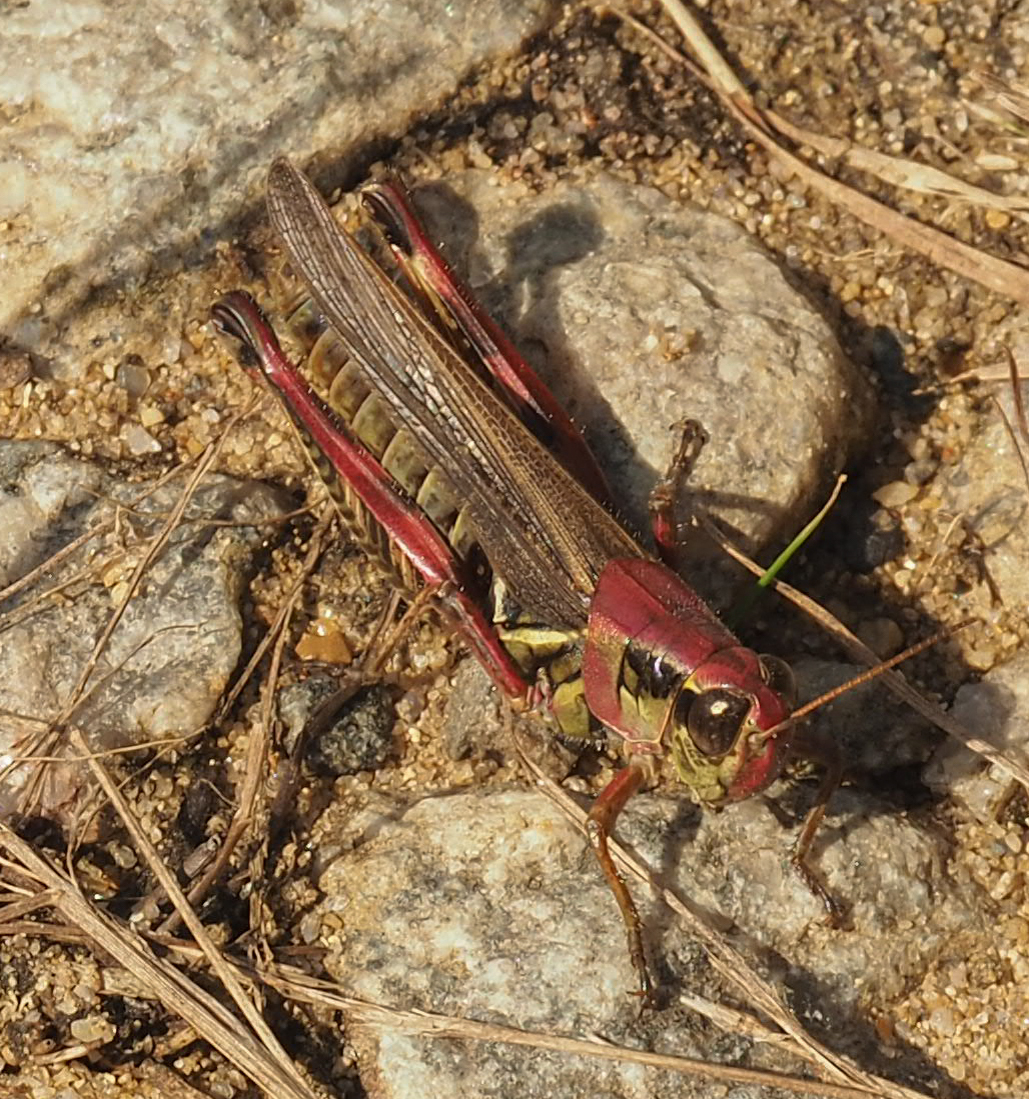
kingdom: Animalia
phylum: Arthropoda
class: Insecta
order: Orthoptera
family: Acrididae
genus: Melanoplus
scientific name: Melanoplus femurrubrum
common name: Red-legged grasshopper
